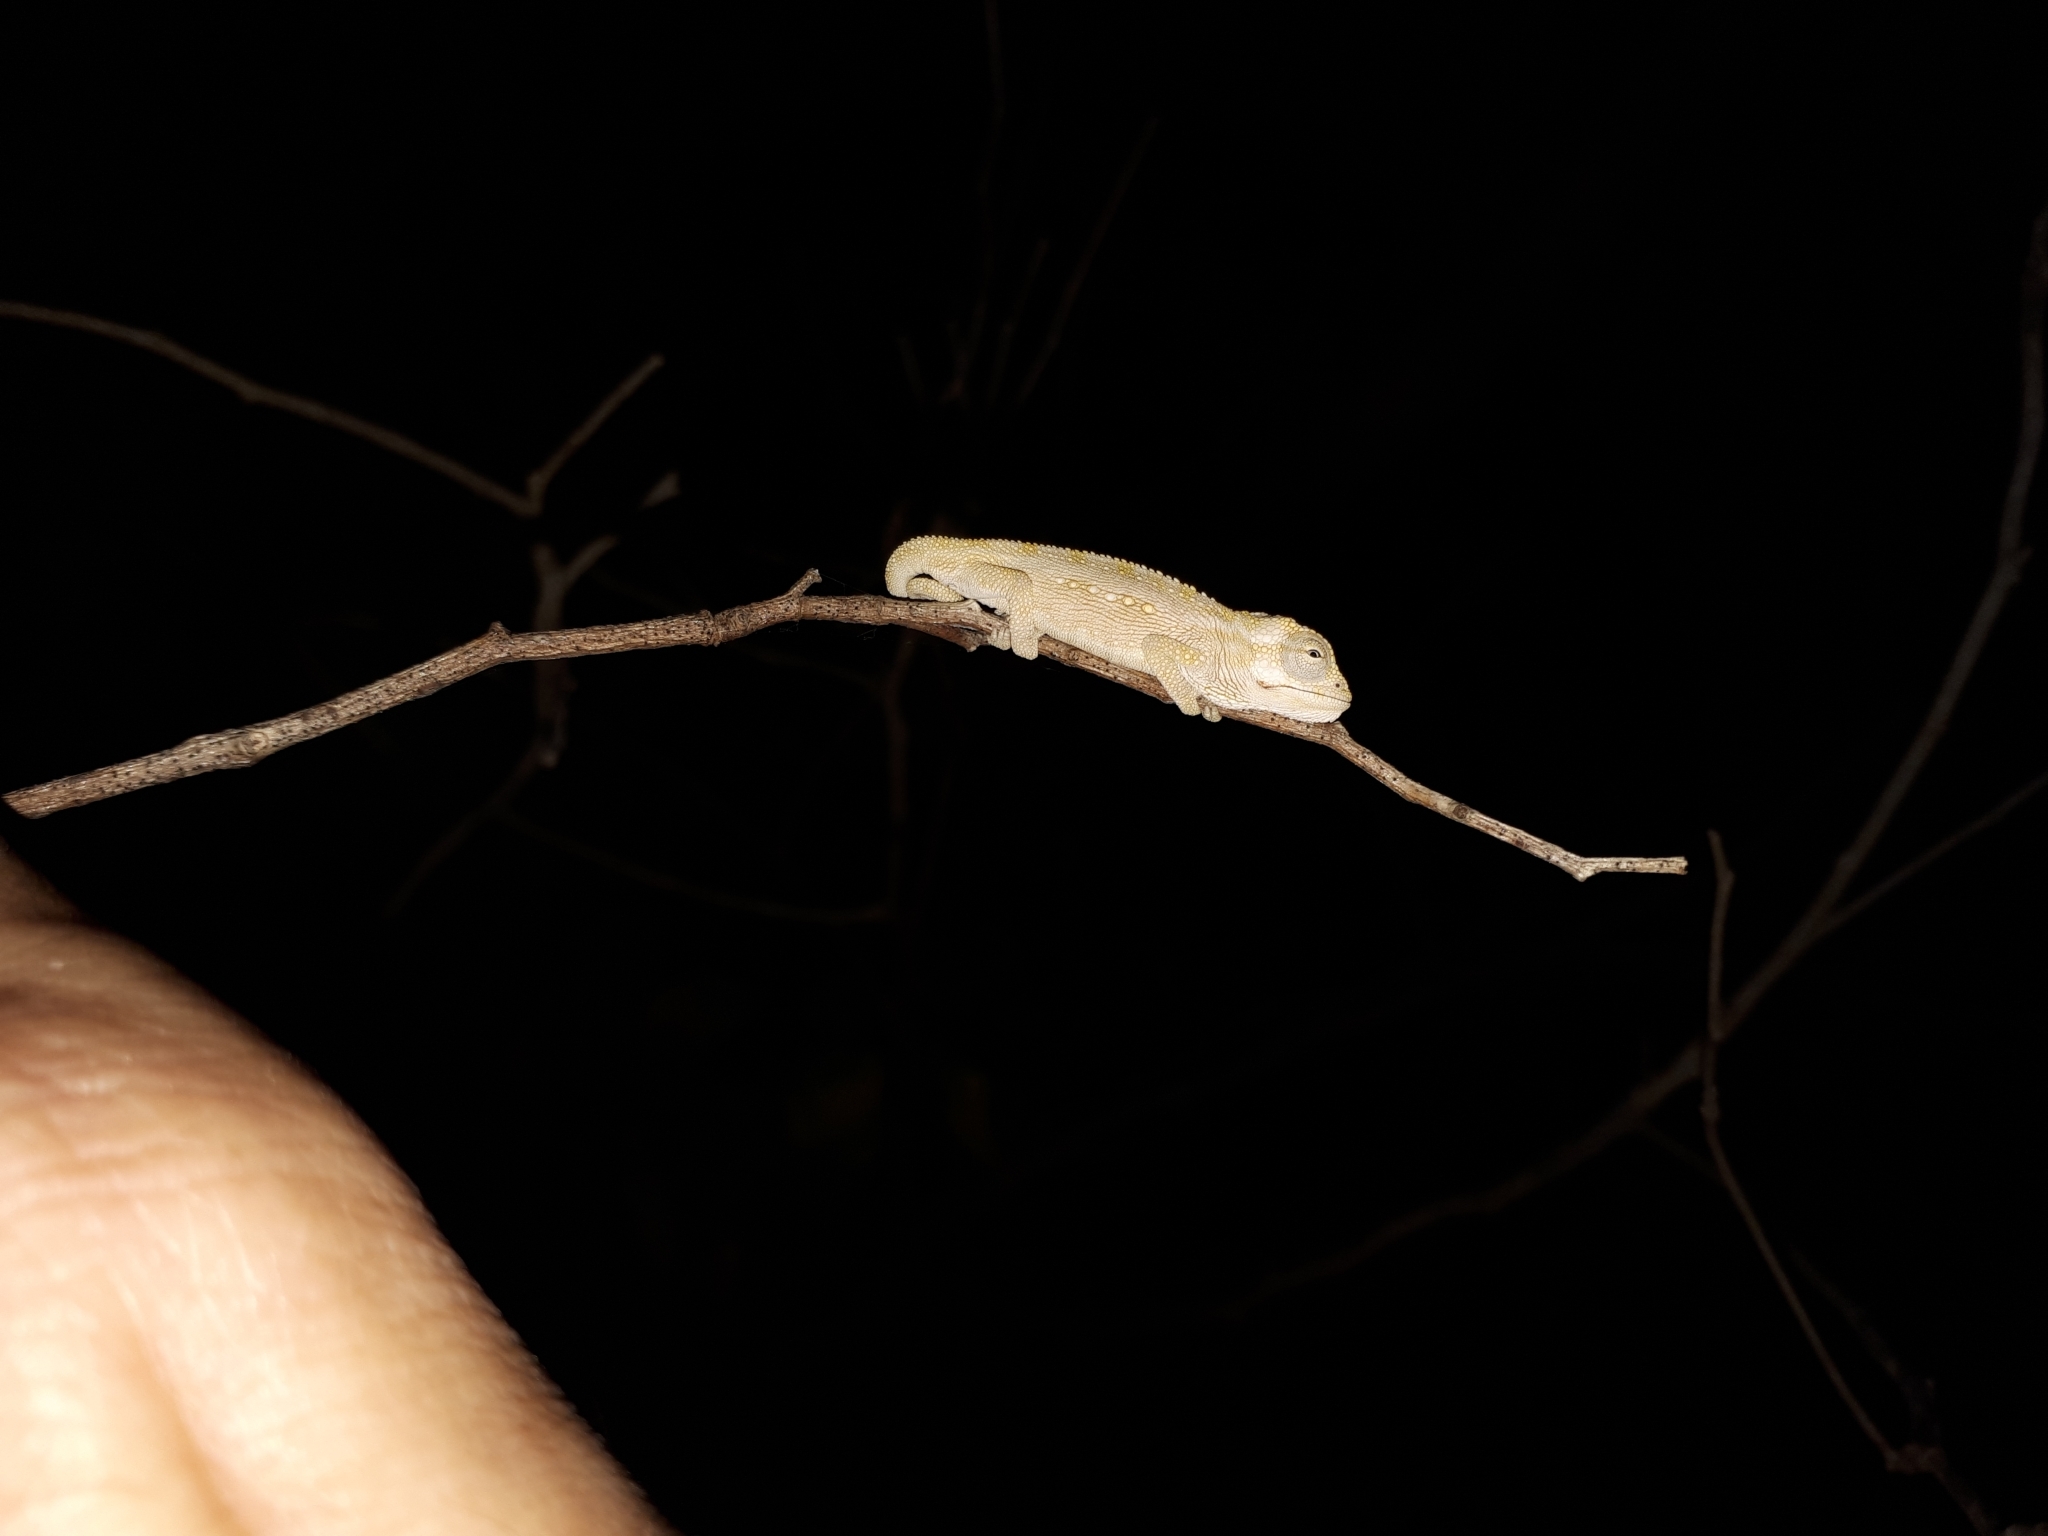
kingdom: Animalia
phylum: Chordata
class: Squamata
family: Chamaeleonidae
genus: Bradypodion
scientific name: Bradypodion pumilum
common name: Cape dwarf chameleon
